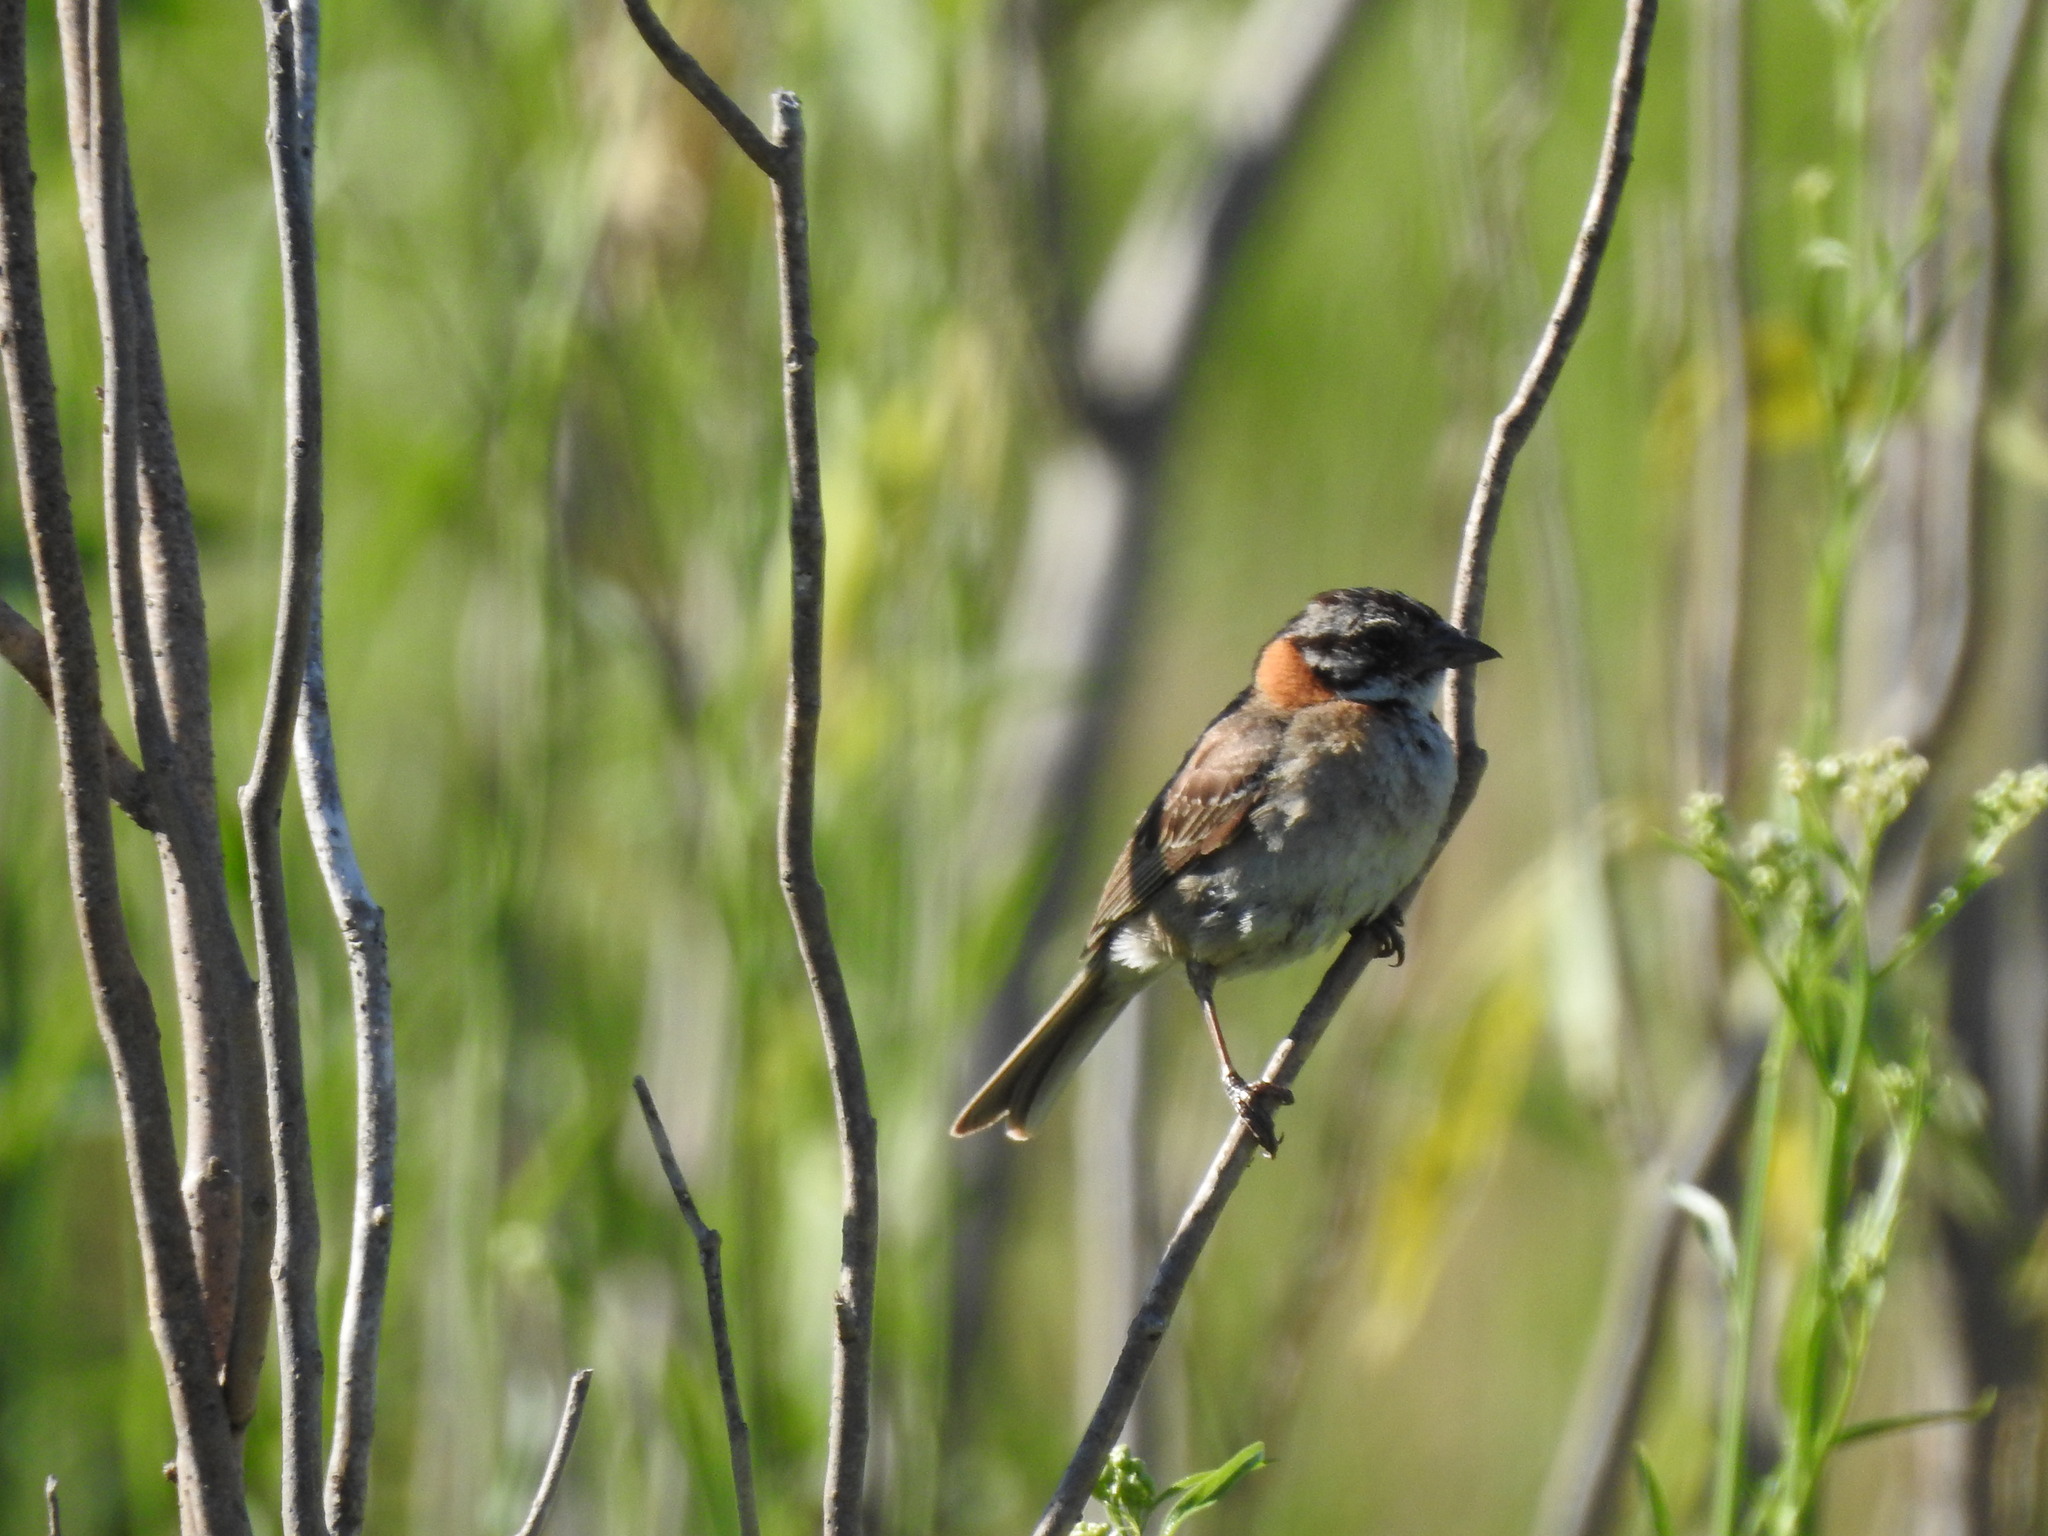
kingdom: Animalia
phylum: Chordata
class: Aves
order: Passeriformes
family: Passerellidae
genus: Zonotrichia
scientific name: Zonotrichia capensis
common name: Rufous-collared sparrow
